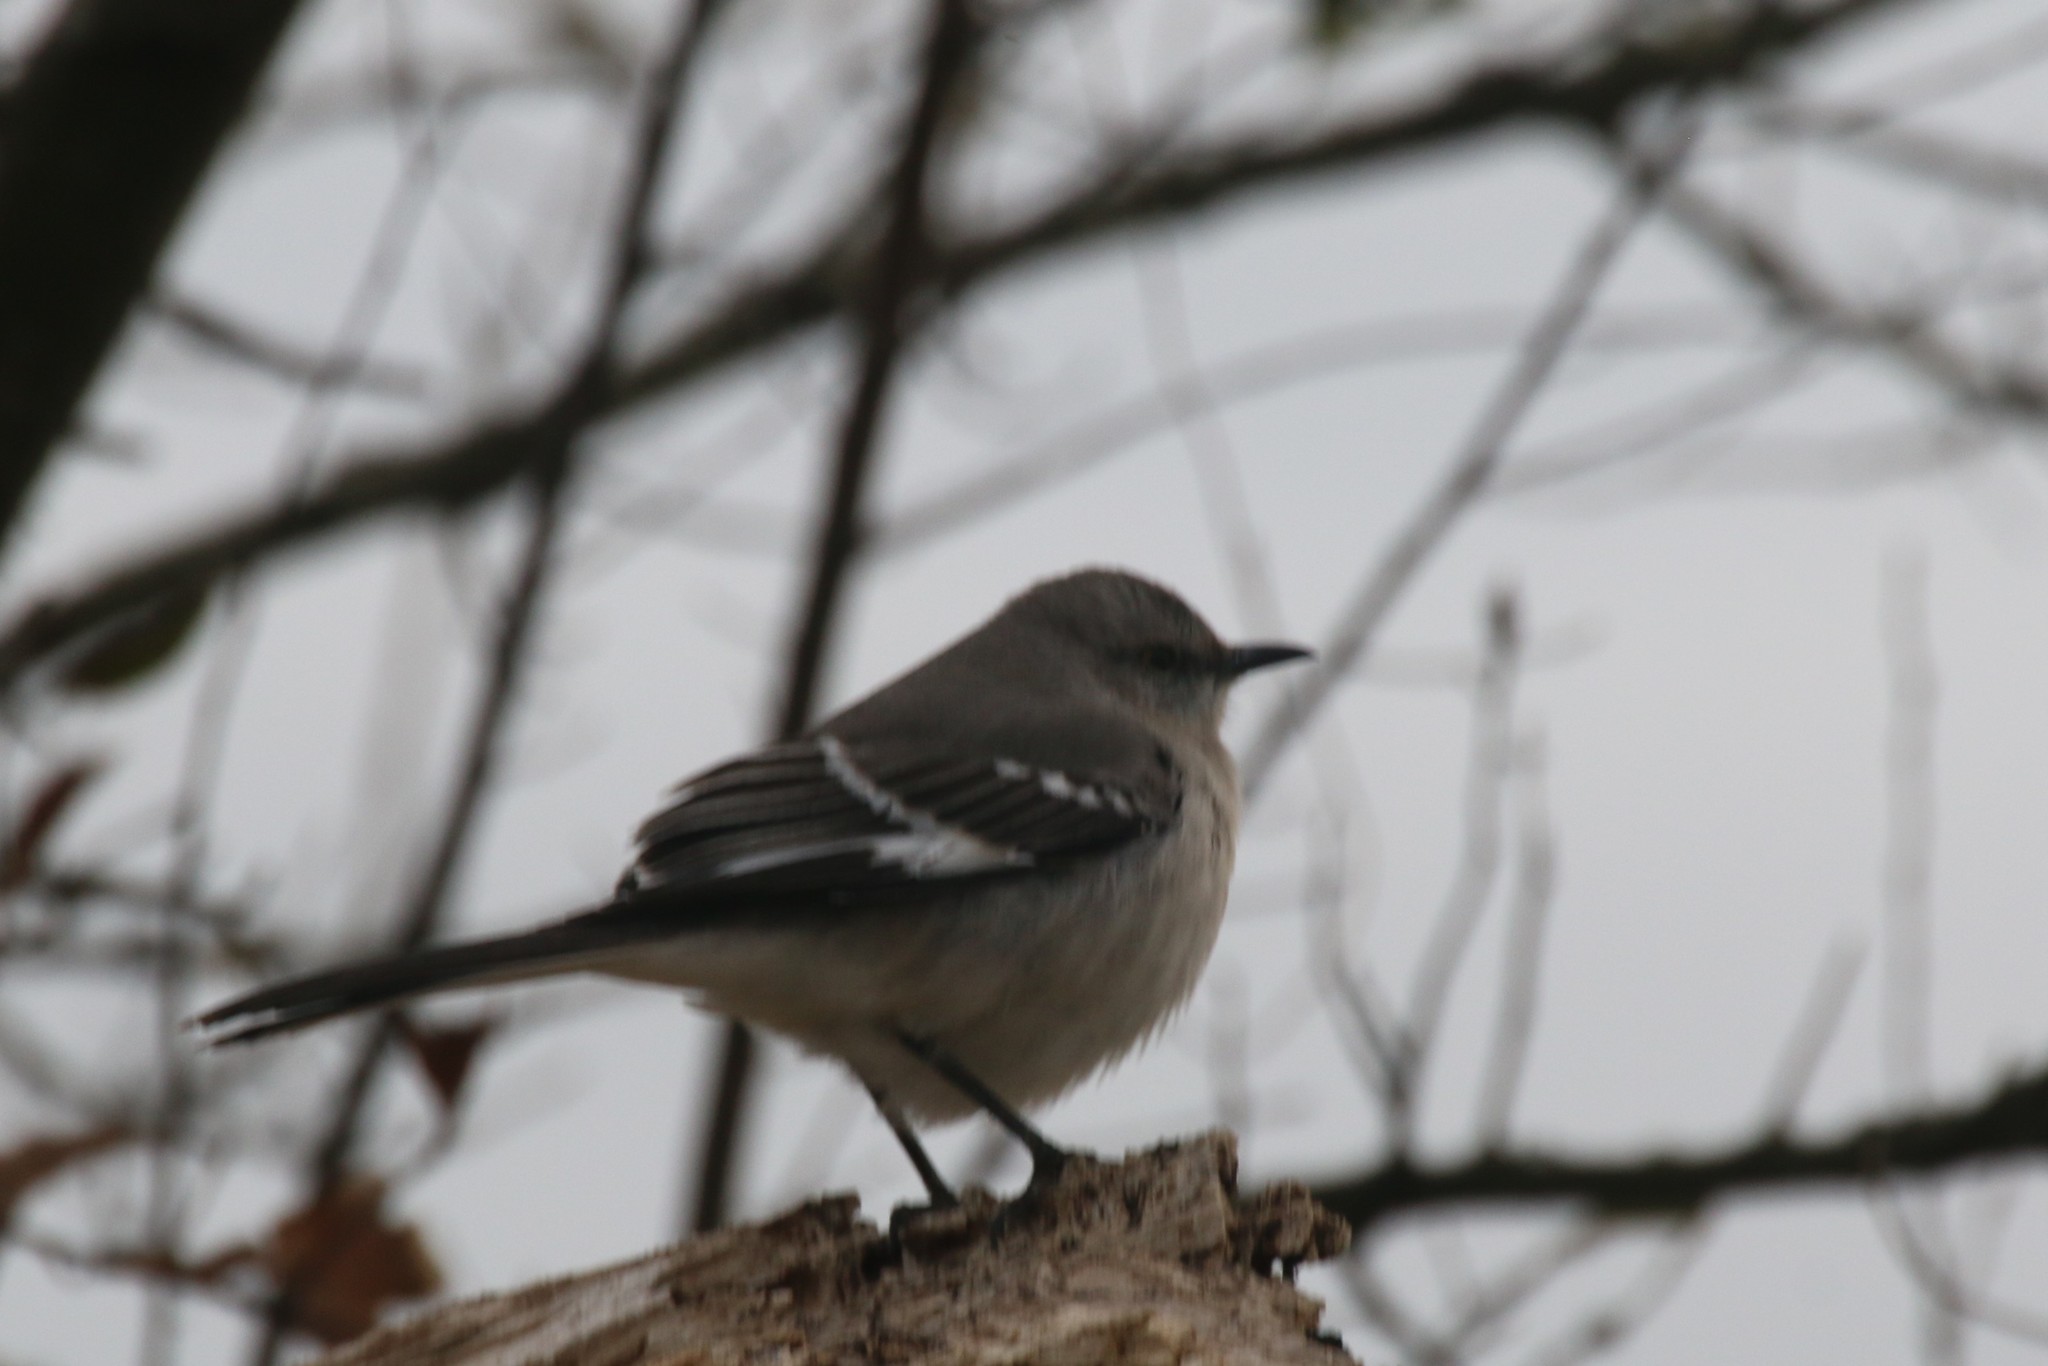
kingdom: Animalia
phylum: Chordata
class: Aves
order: Passeriformes
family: Mimidae
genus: Mimus
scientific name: Mimus polyglottos
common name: Northern mockingbird
